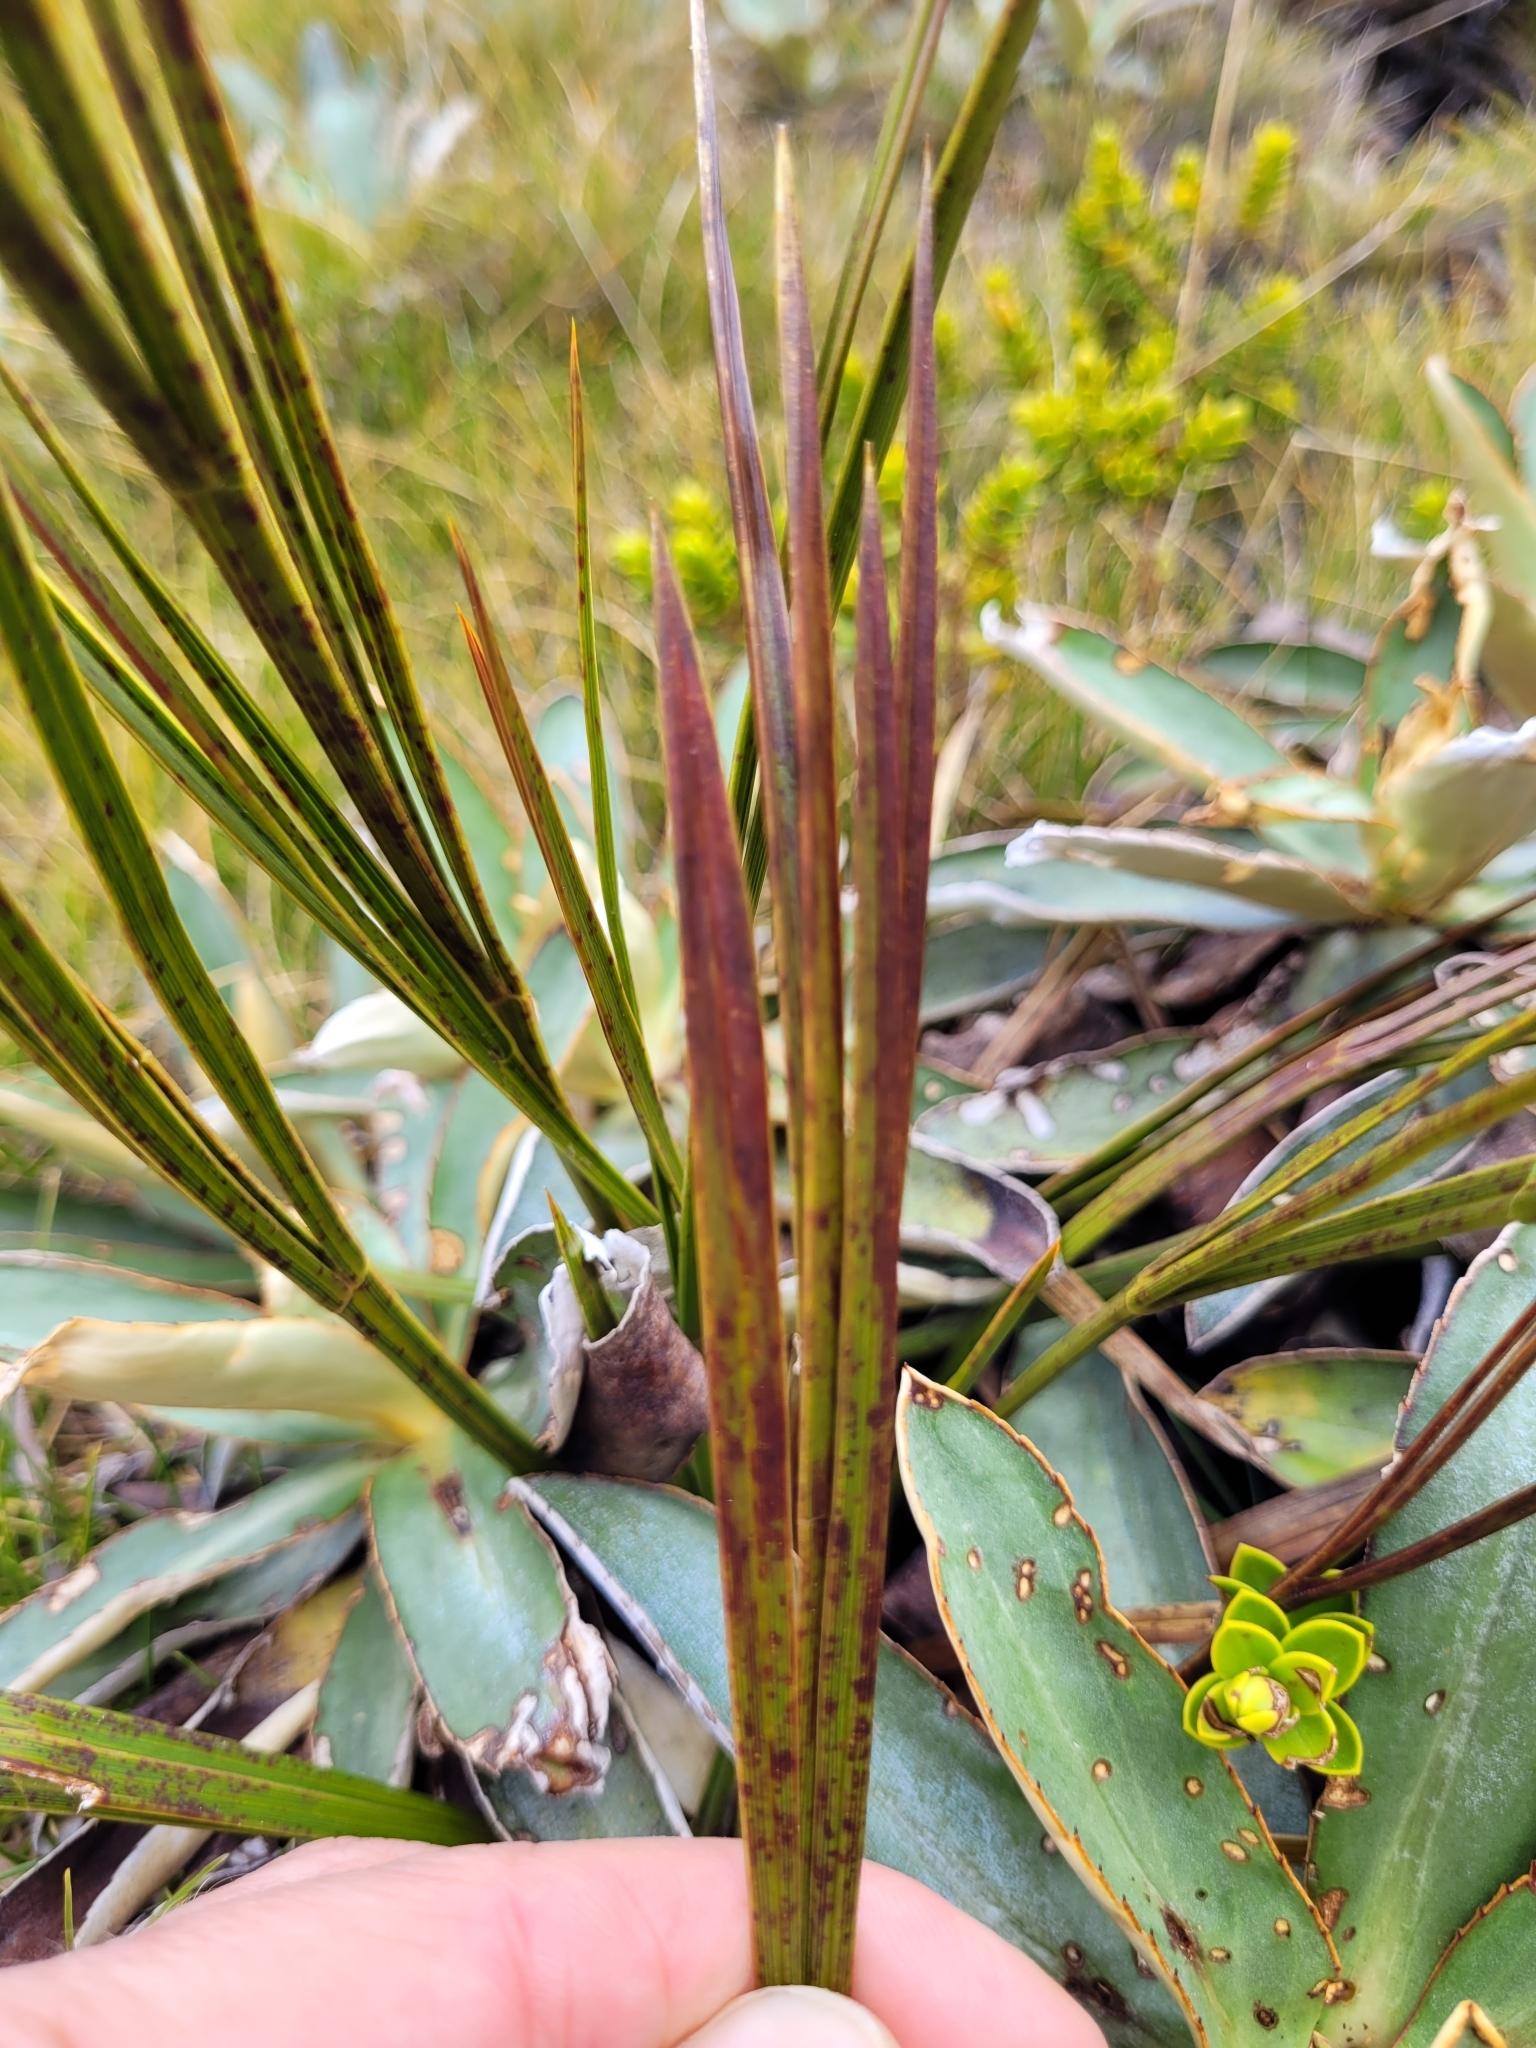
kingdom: Plantae
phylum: Tracheophyta
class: Magnoliopsida
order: Apiales
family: Apiaceae
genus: Aciphylla
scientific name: Aciphylla trifoliolata
